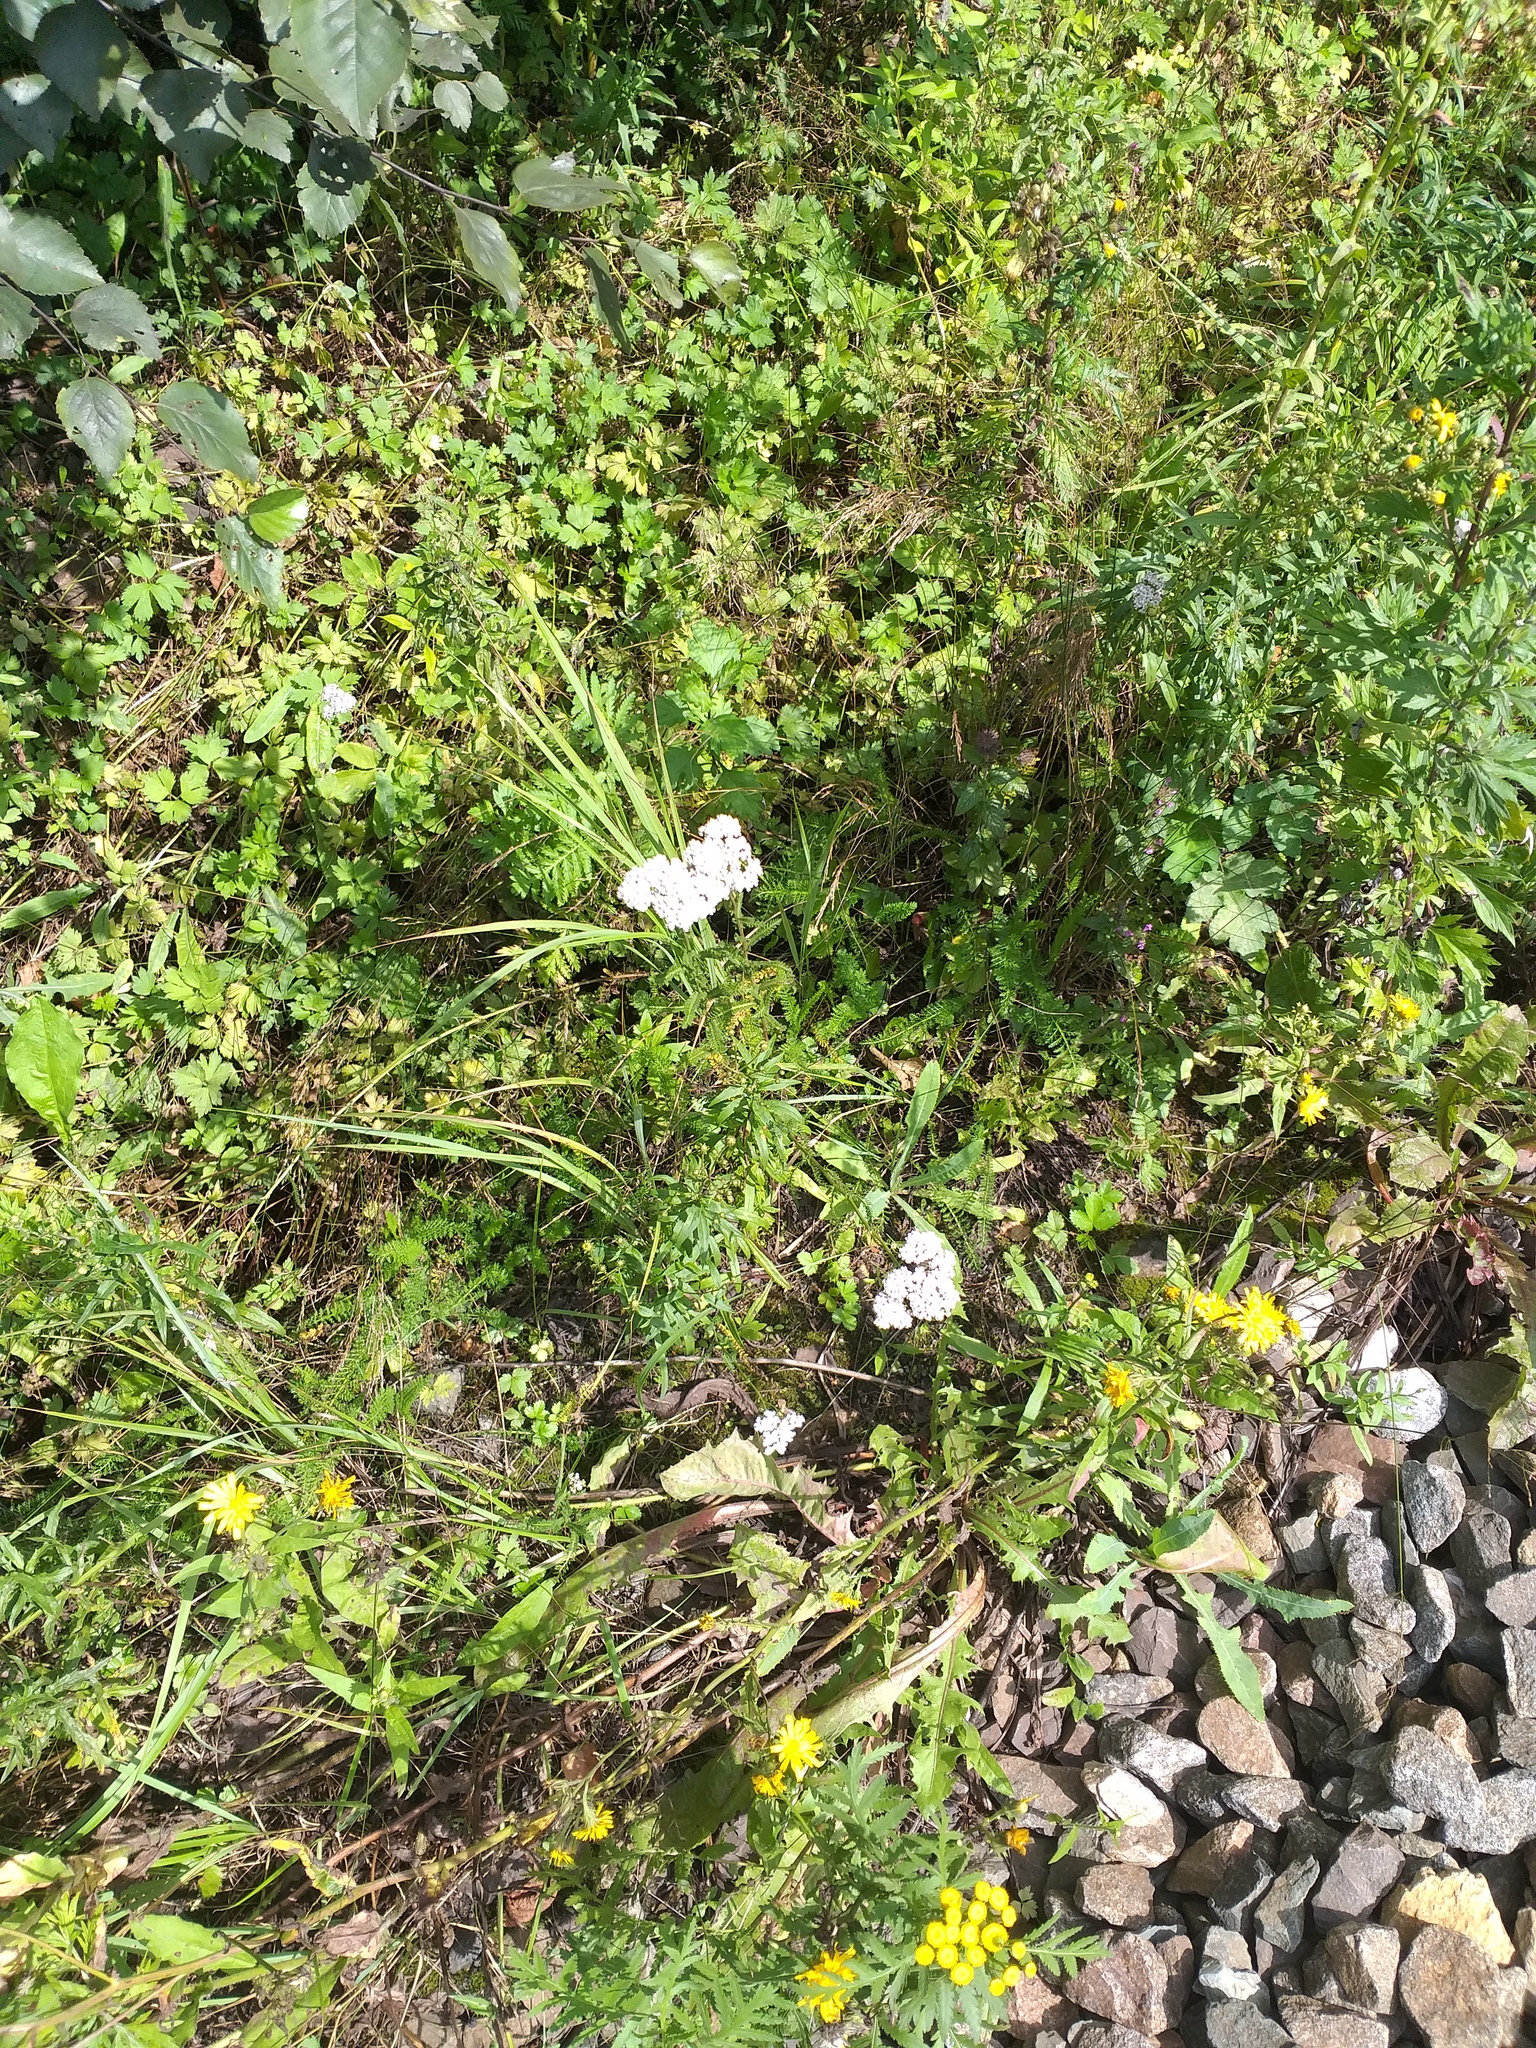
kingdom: Plantae
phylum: Tracheophyta
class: Magnoliopsida
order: Asterales
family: Asteraceae
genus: Achillea
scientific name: Achillea millefolium
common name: Yarrow
